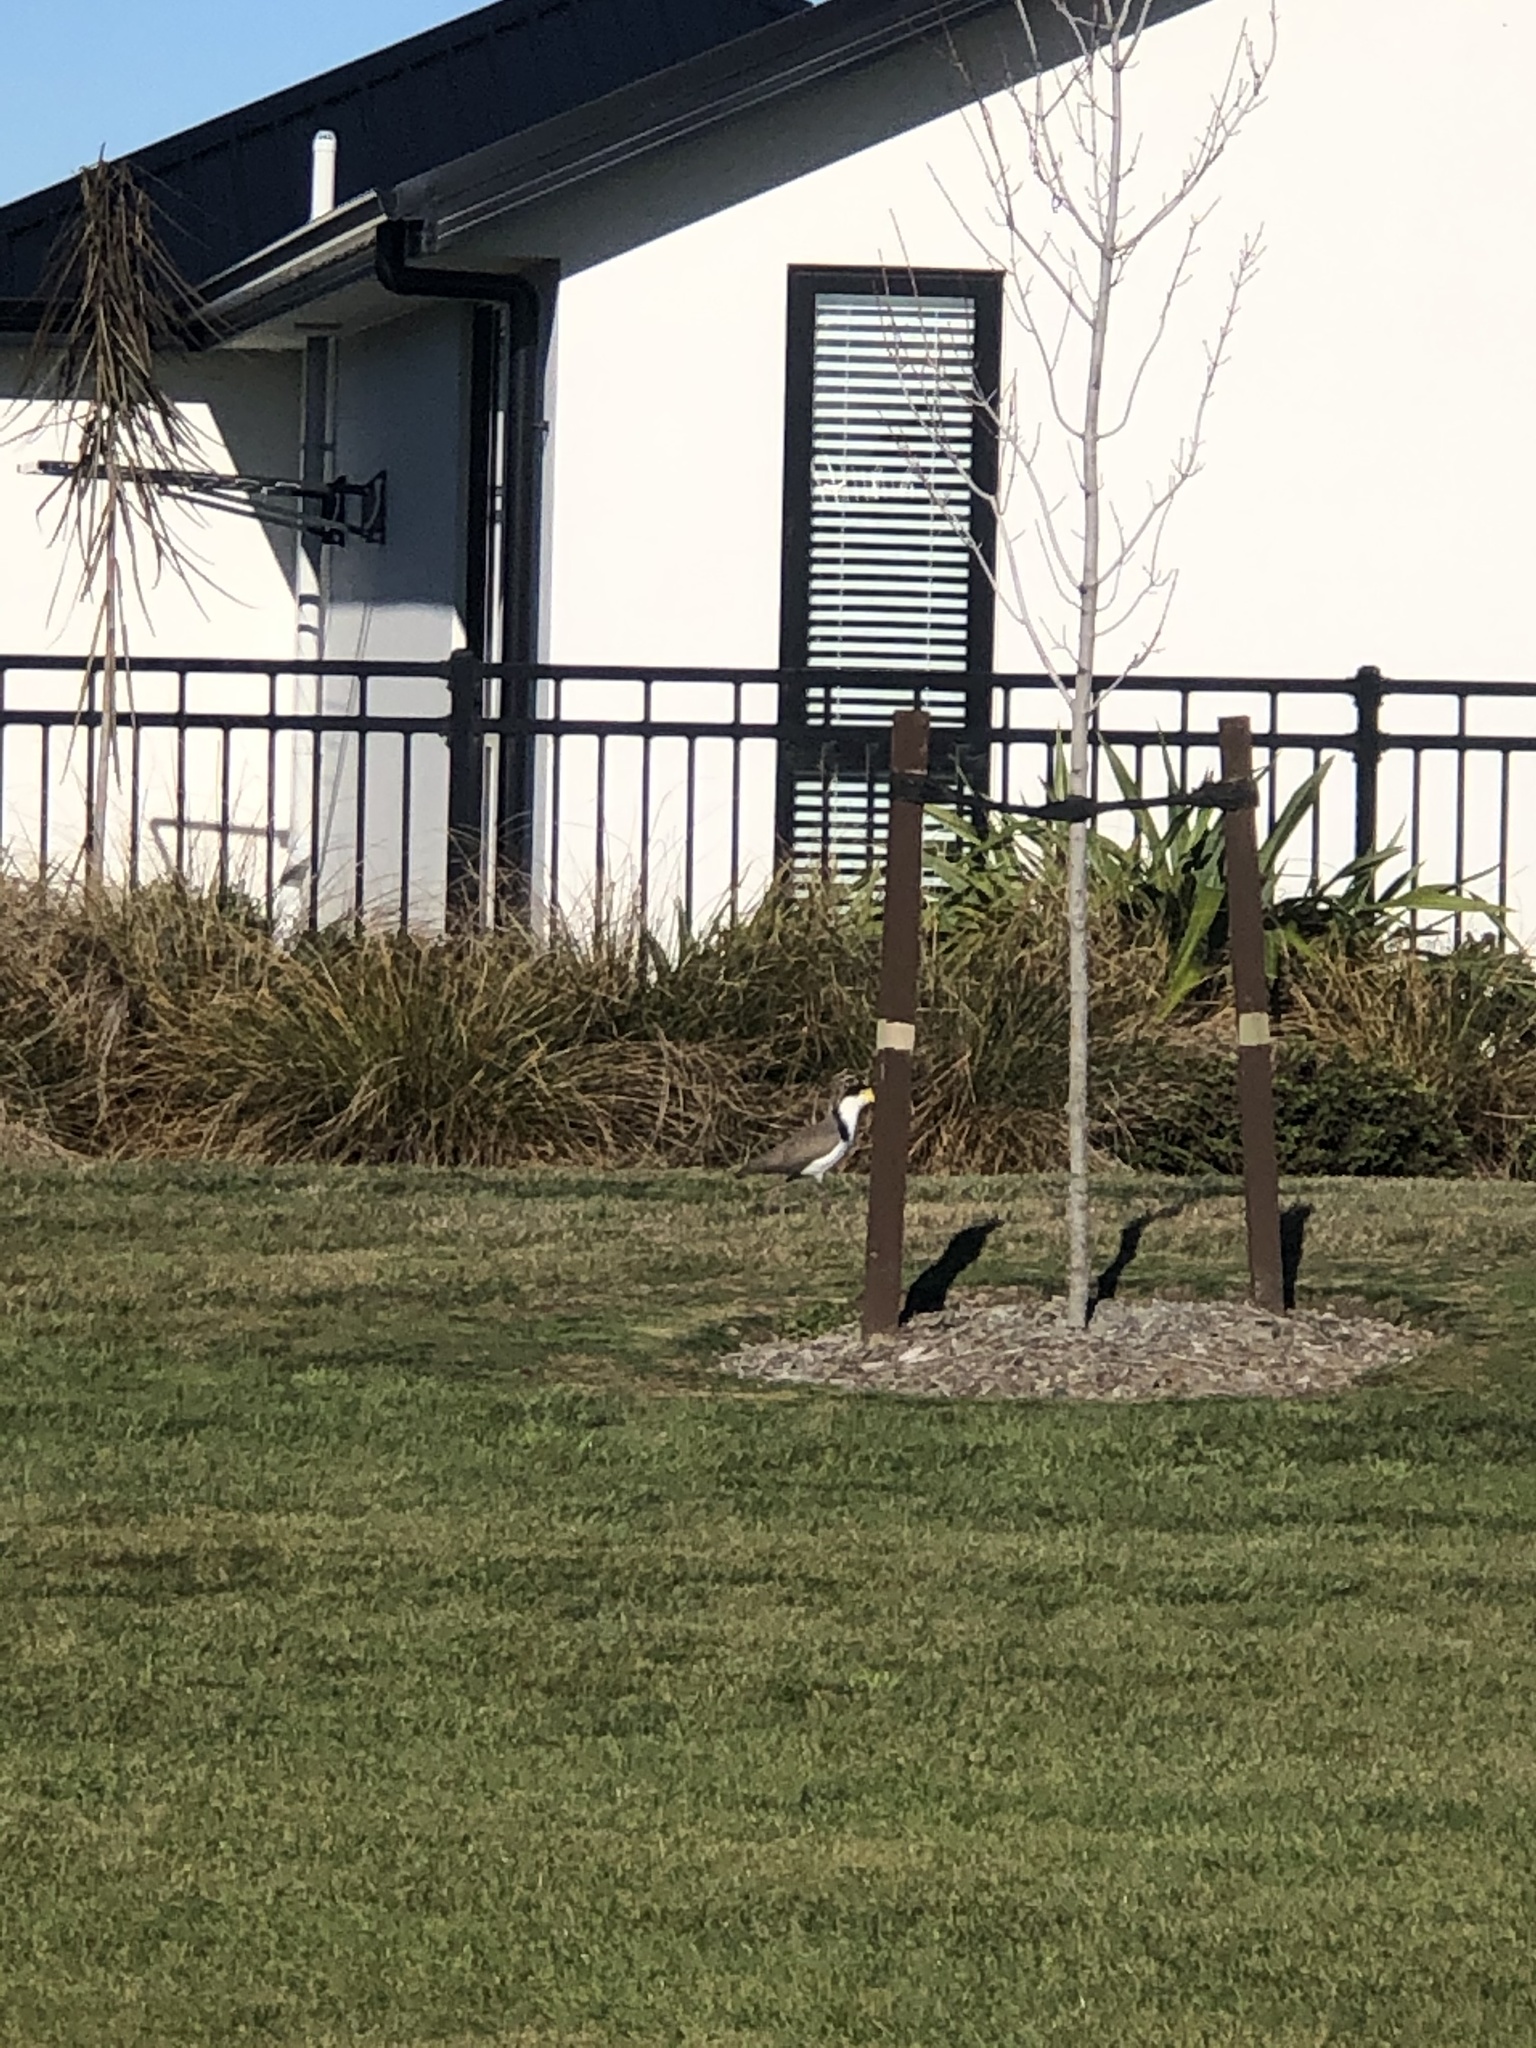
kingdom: Animalia
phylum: Chordata
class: Aves
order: Charadriiformes
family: Charadriidae
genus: Vanellus
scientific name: Vanellus miles
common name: Masked lapwing
